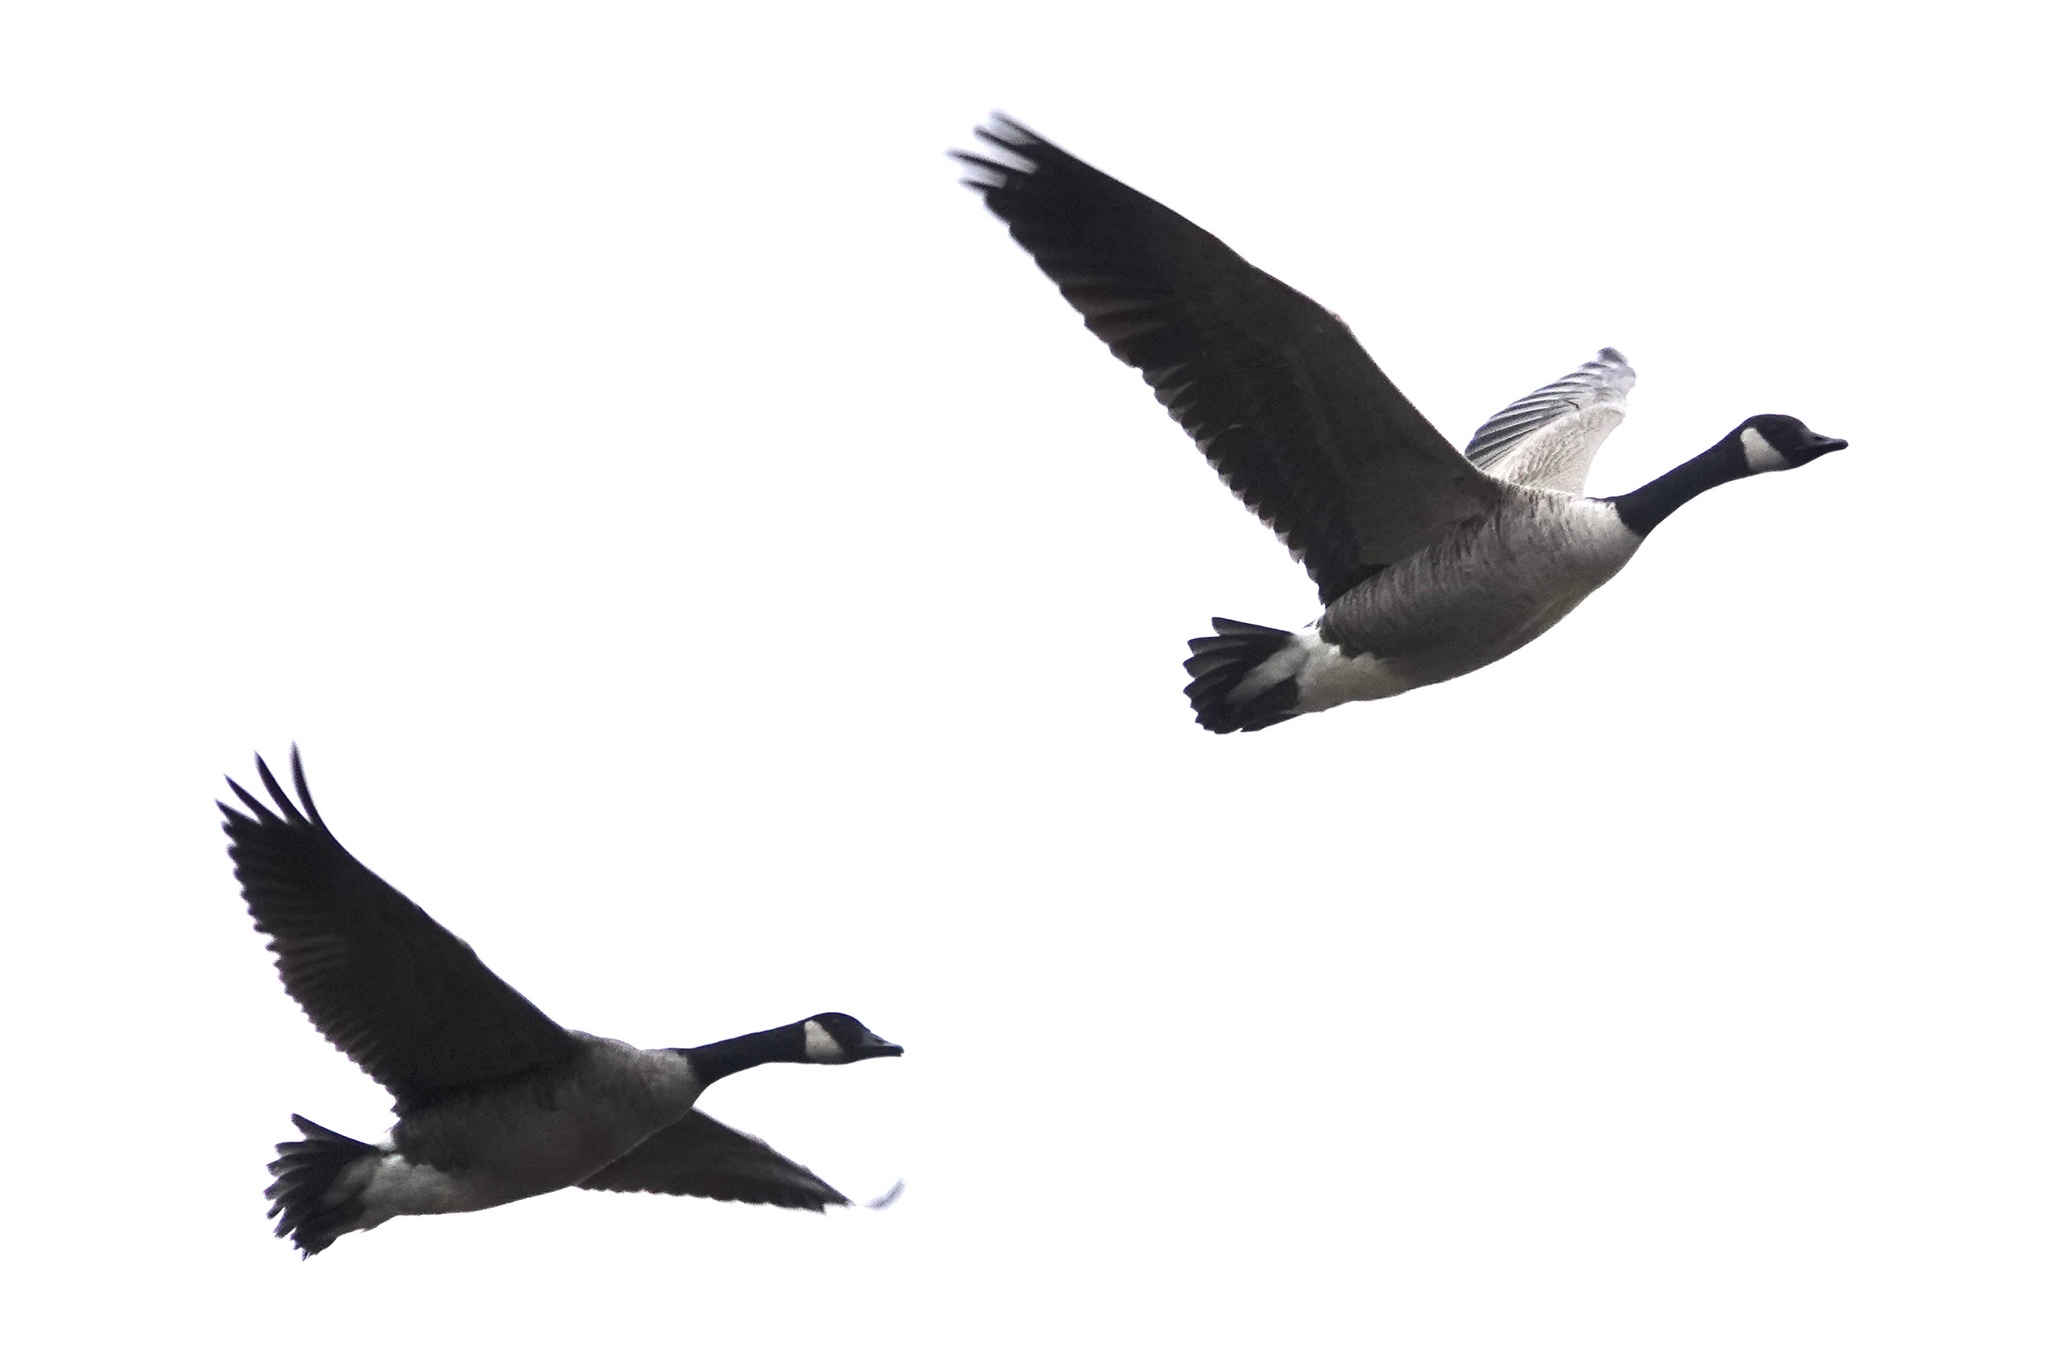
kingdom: Animalia
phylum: Chordata
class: Aves
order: Anseriformes
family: Anatidae
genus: Branta
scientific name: Branta canadensis
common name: Canada goose
